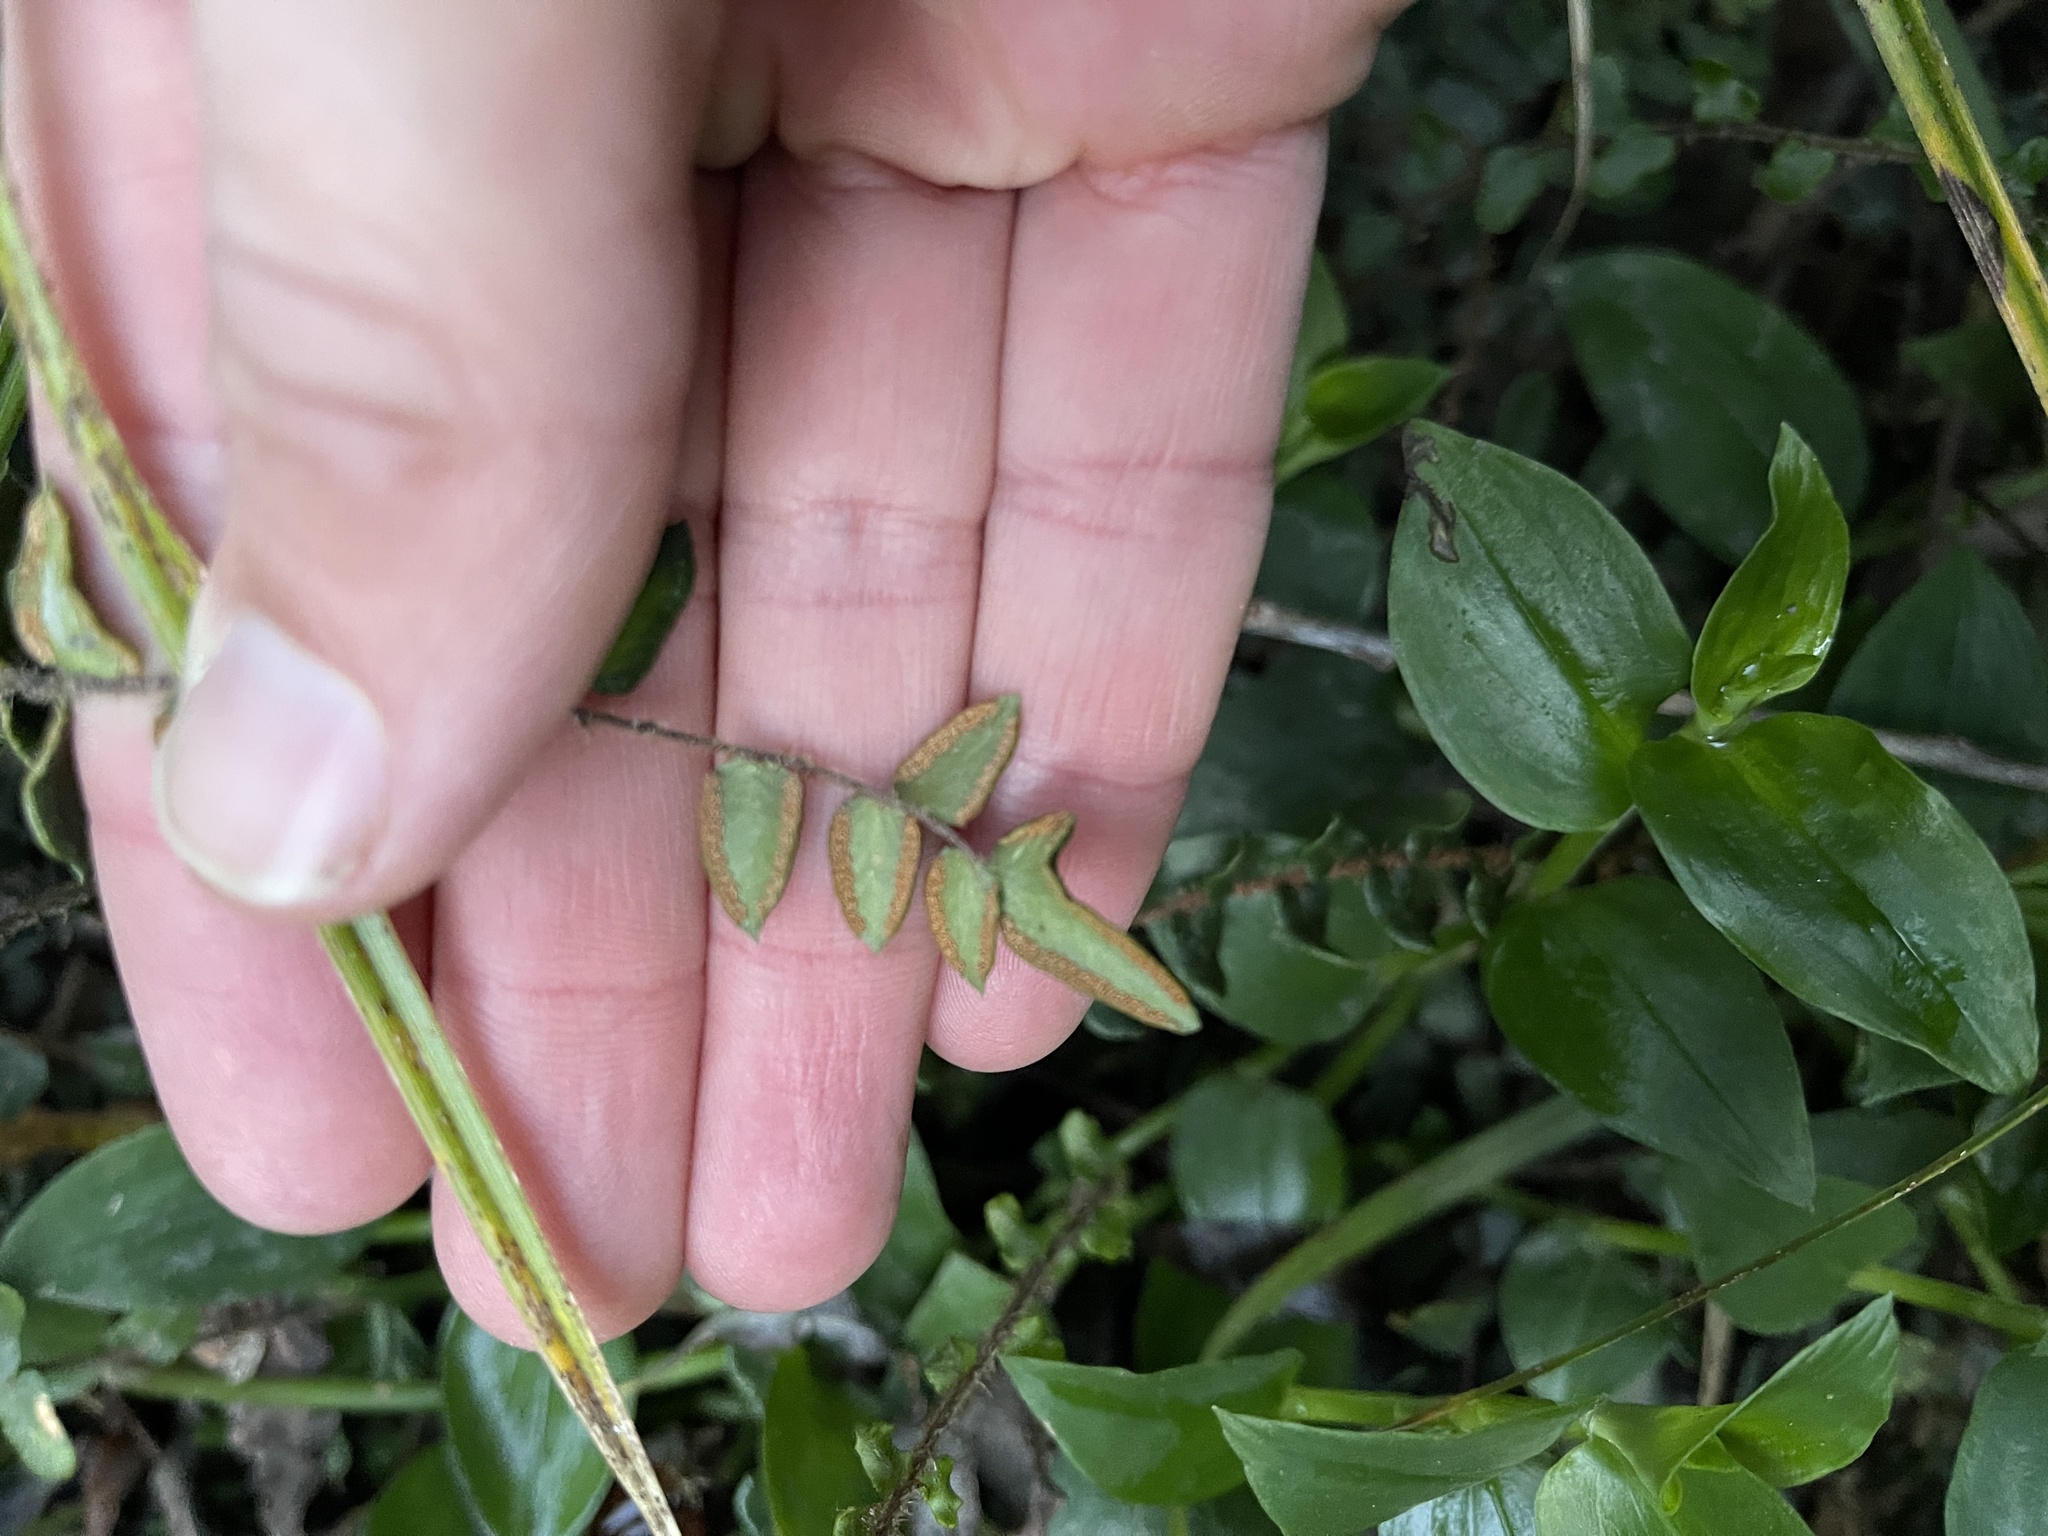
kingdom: Plantae
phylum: Tracheophyta
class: Polypodiopsida
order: Polypodiales
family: Pteridaceae
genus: Pellaea
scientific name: Pellaea rotundifolia
